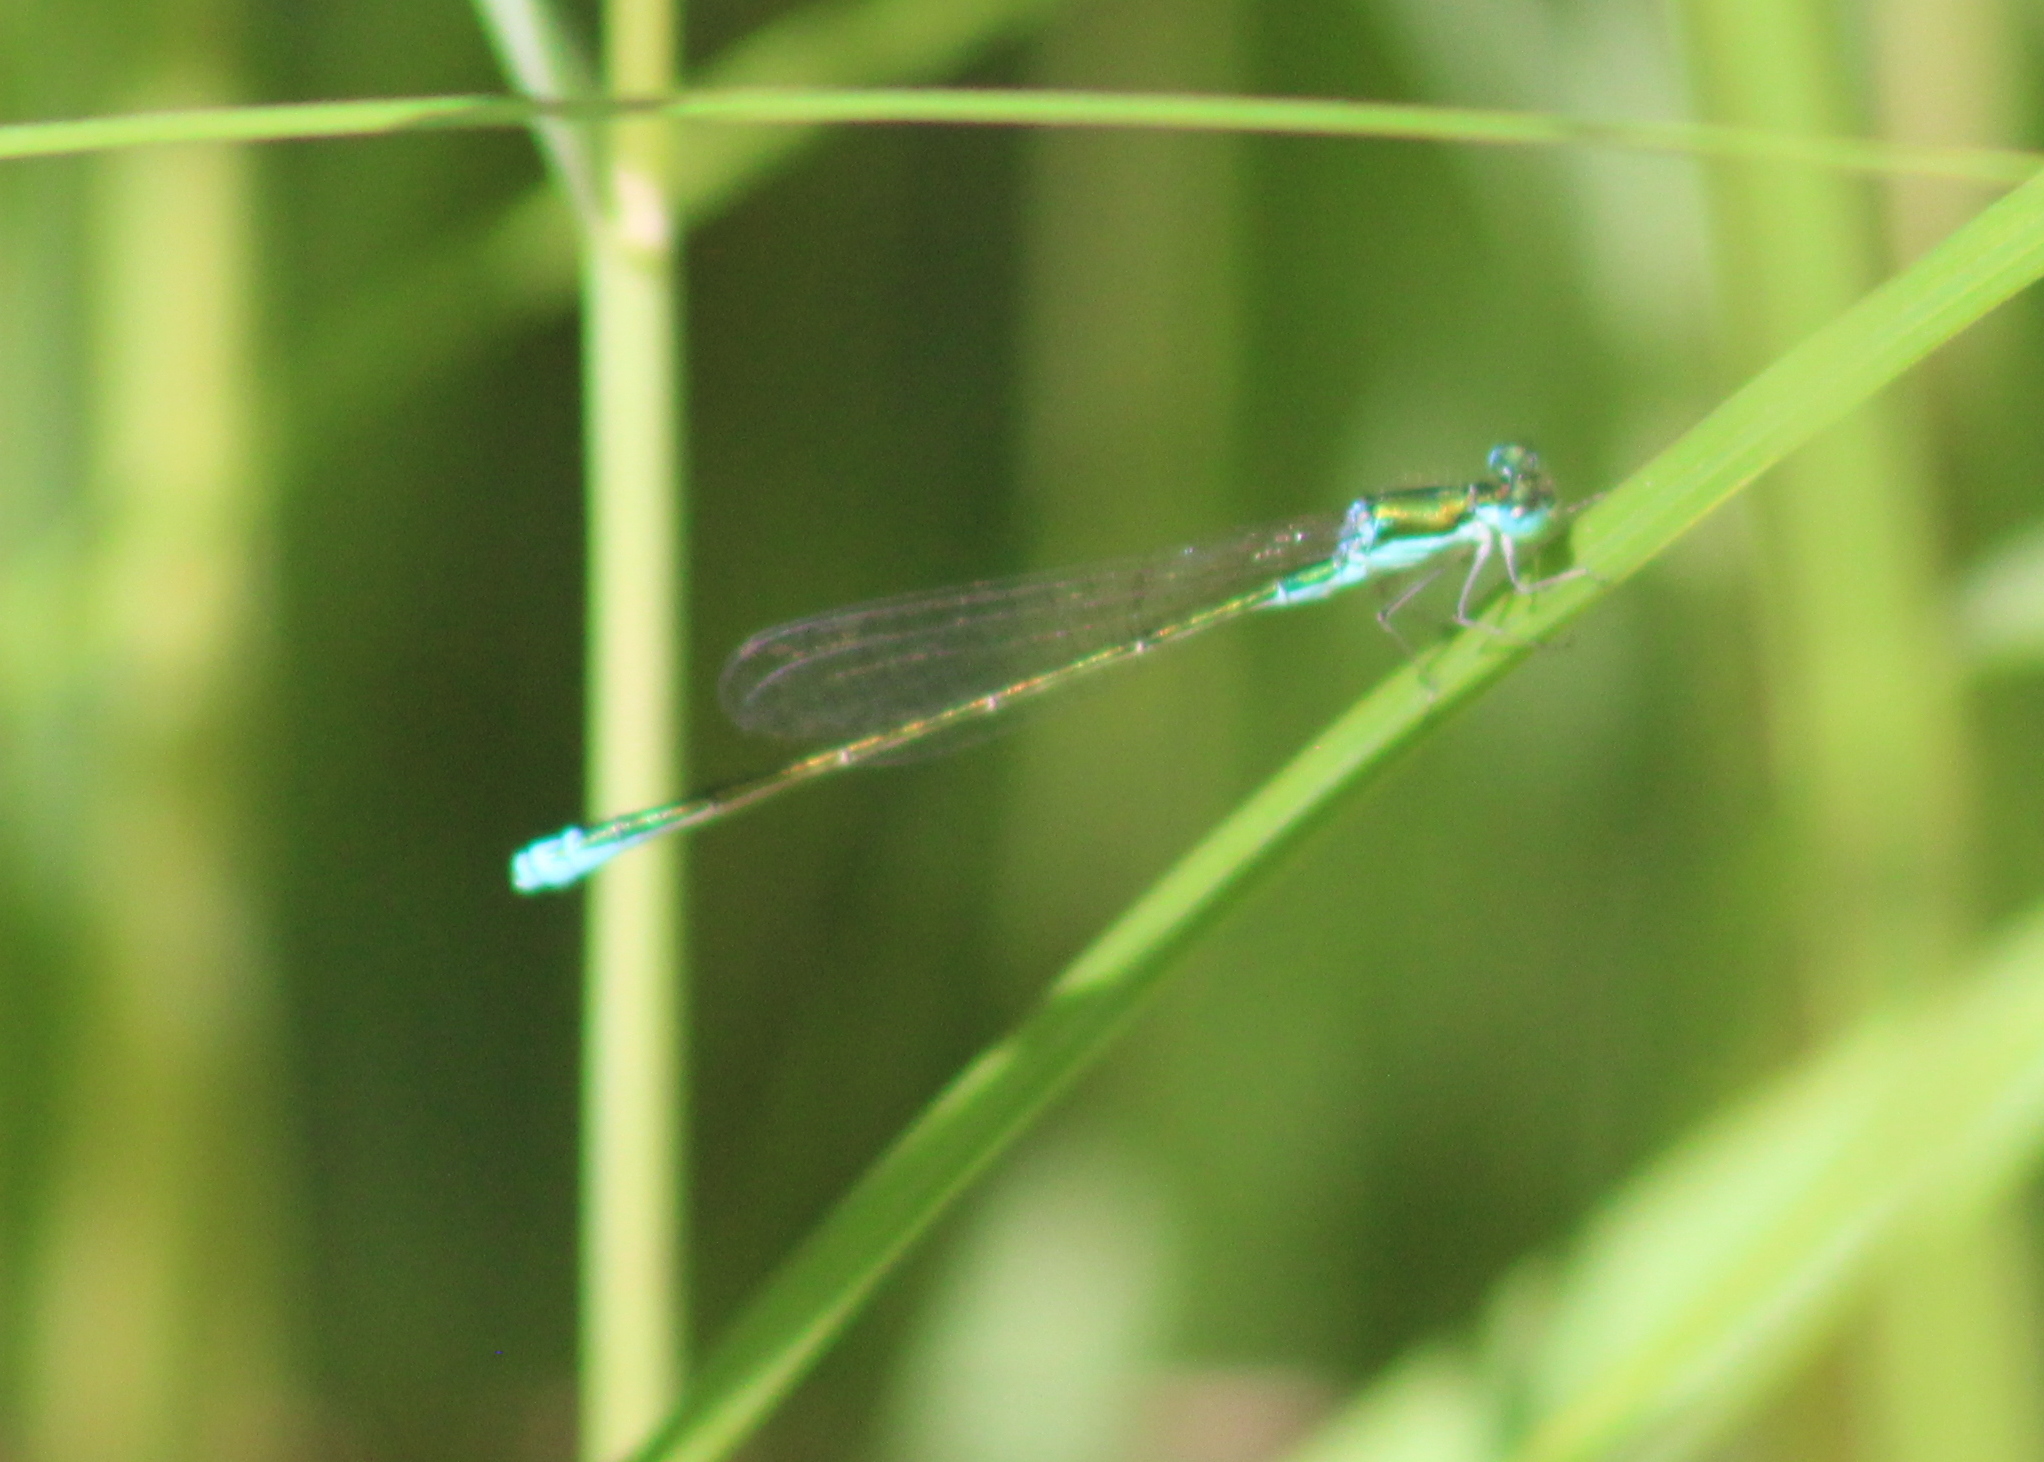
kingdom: Animalia
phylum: Arthropoda
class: Insecta
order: Odonata
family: Coenagrionidae
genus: Nehalennia
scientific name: Nehalennia irene
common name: Sedge sprite
